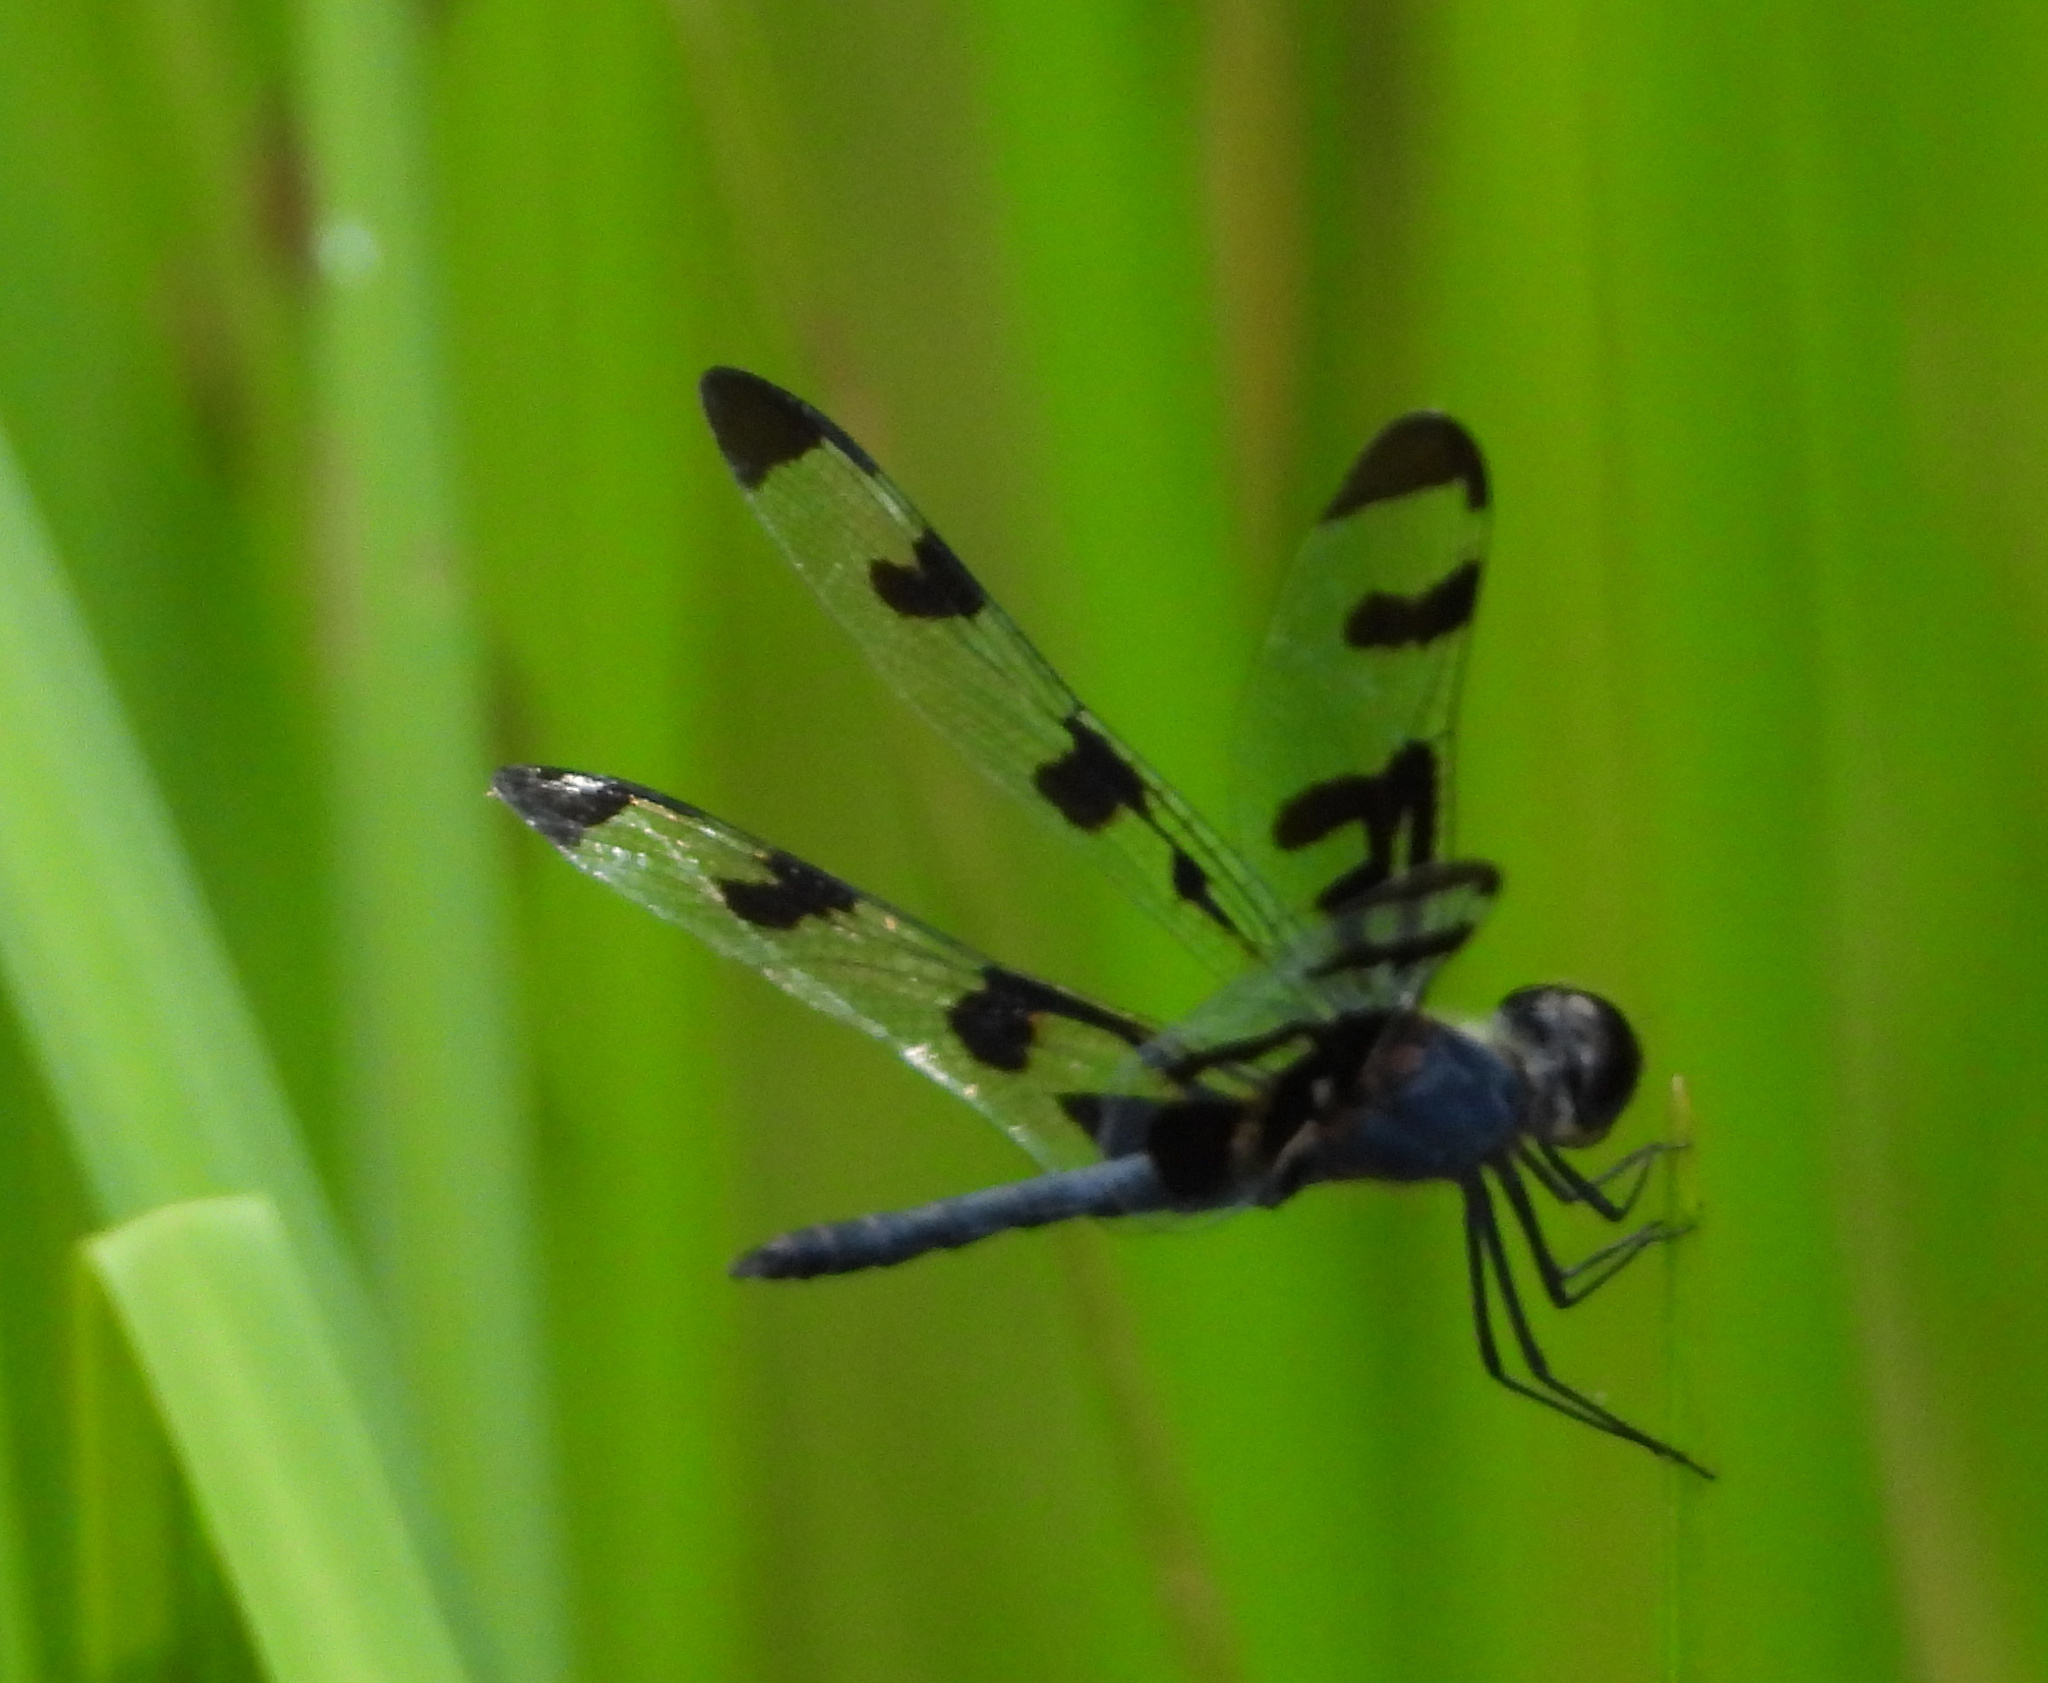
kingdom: Animalia
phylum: Arthropoda
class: Insecta
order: Odonata
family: Libellulidae
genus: Celithemis
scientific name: Celithemis fasciata
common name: Banded pennant
